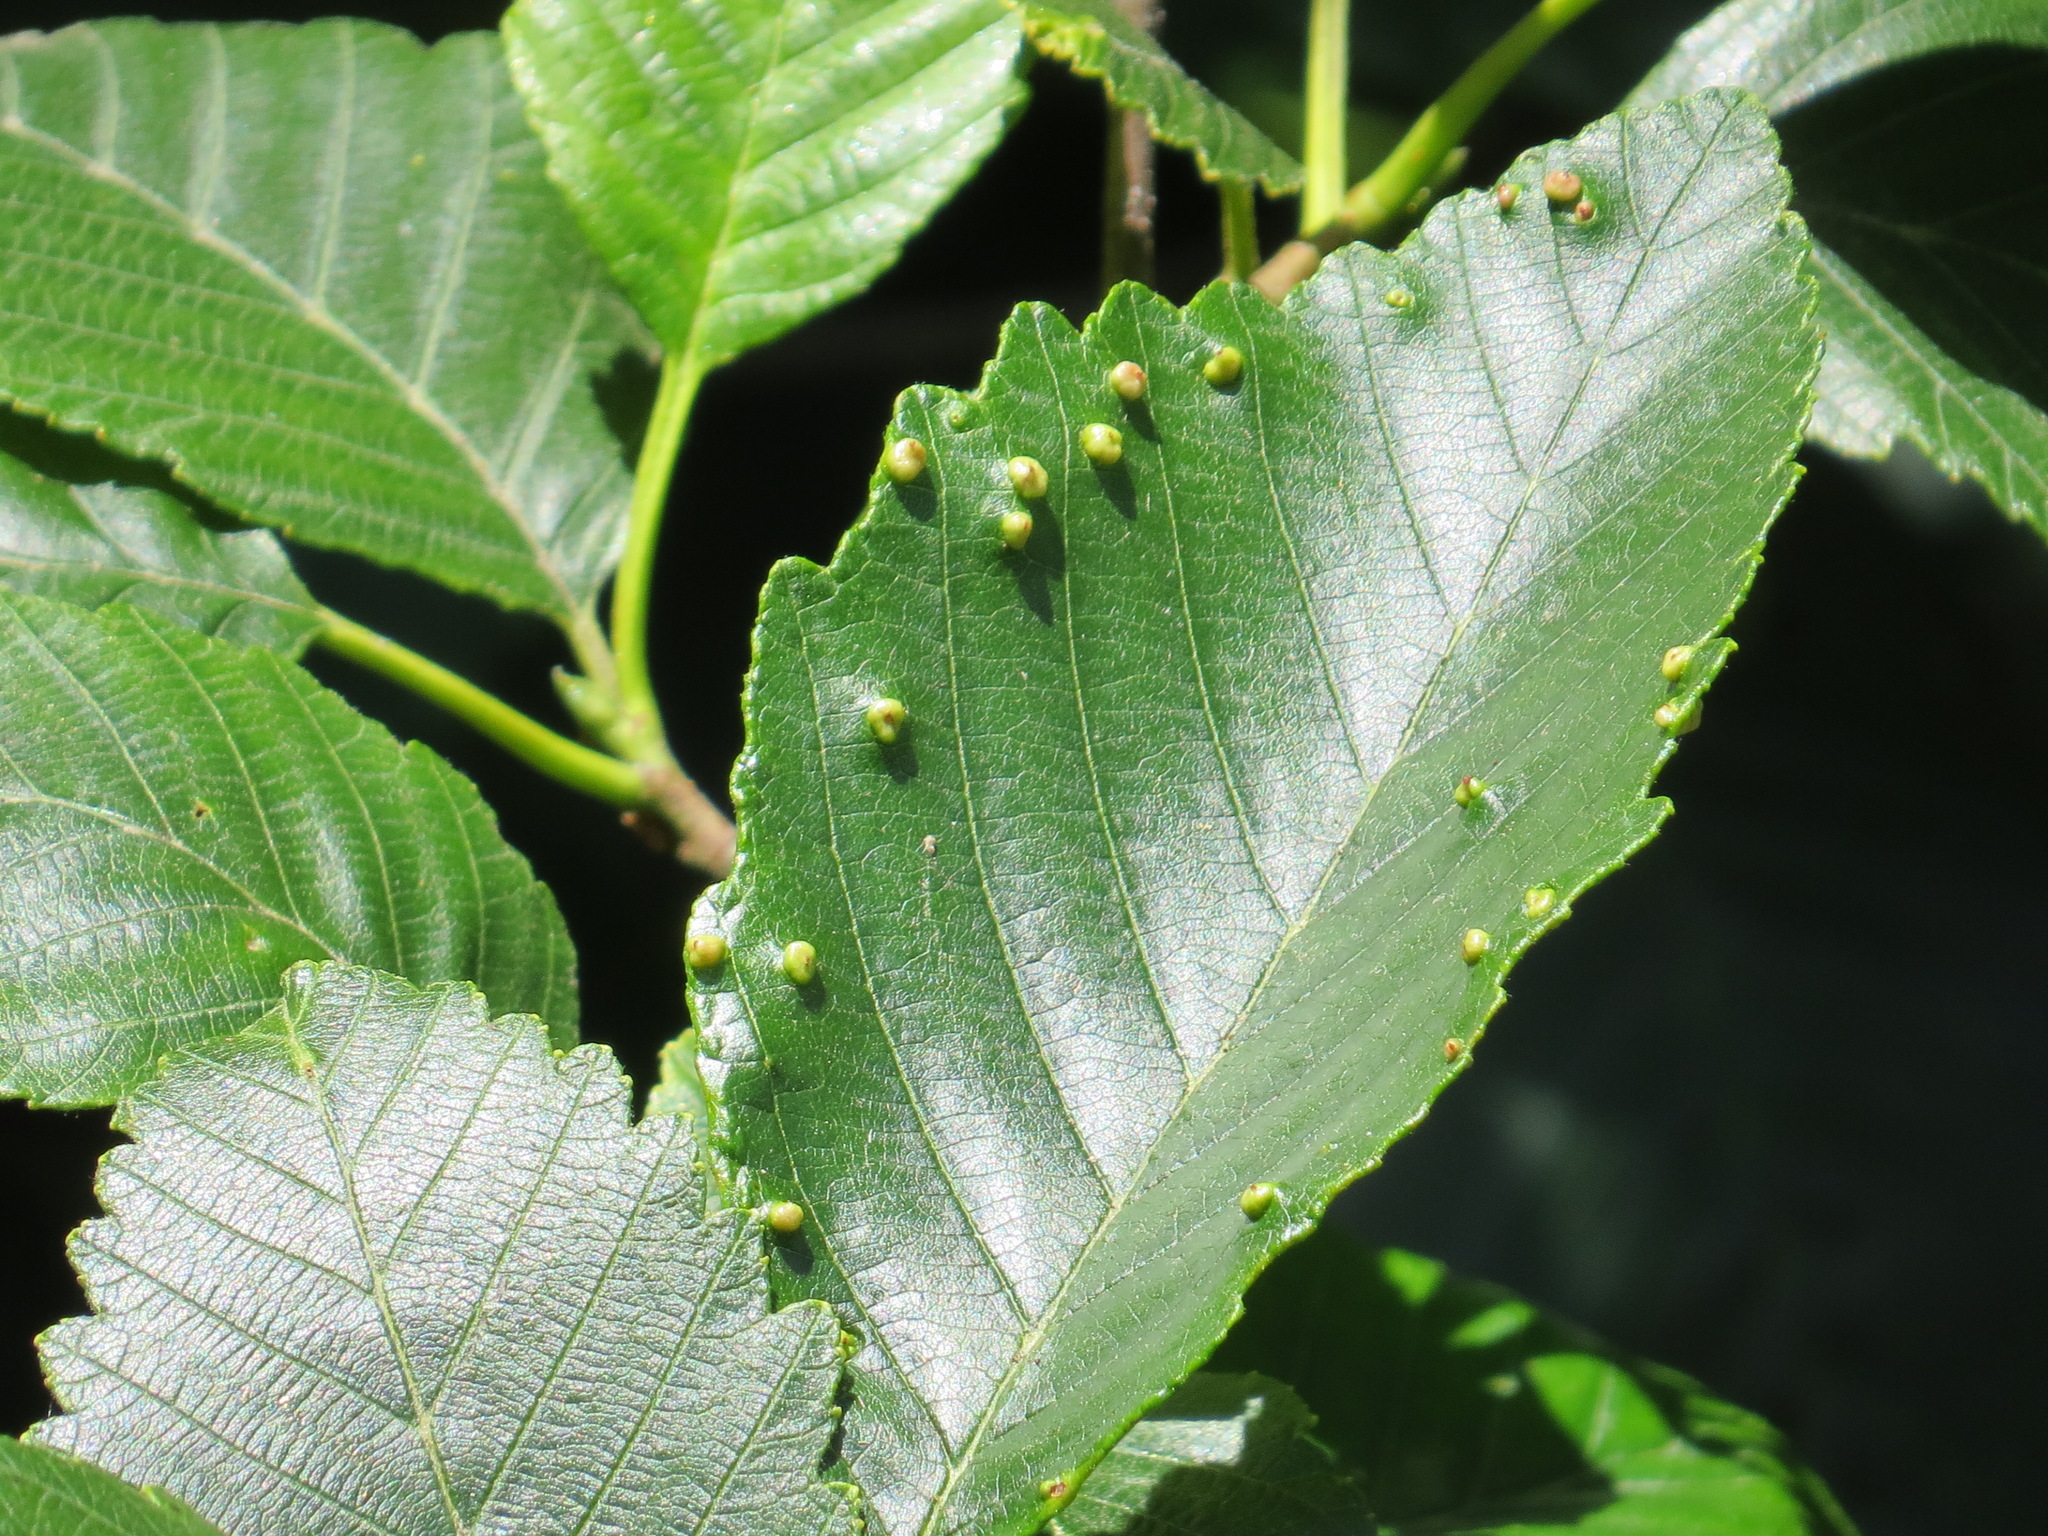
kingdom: Animalia
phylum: Arthropoda
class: Arachnida
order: Trombidiformes
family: Eriophyidae
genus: Eriophyes
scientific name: Eriophyes laevis
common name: Alder leaf gall mite
